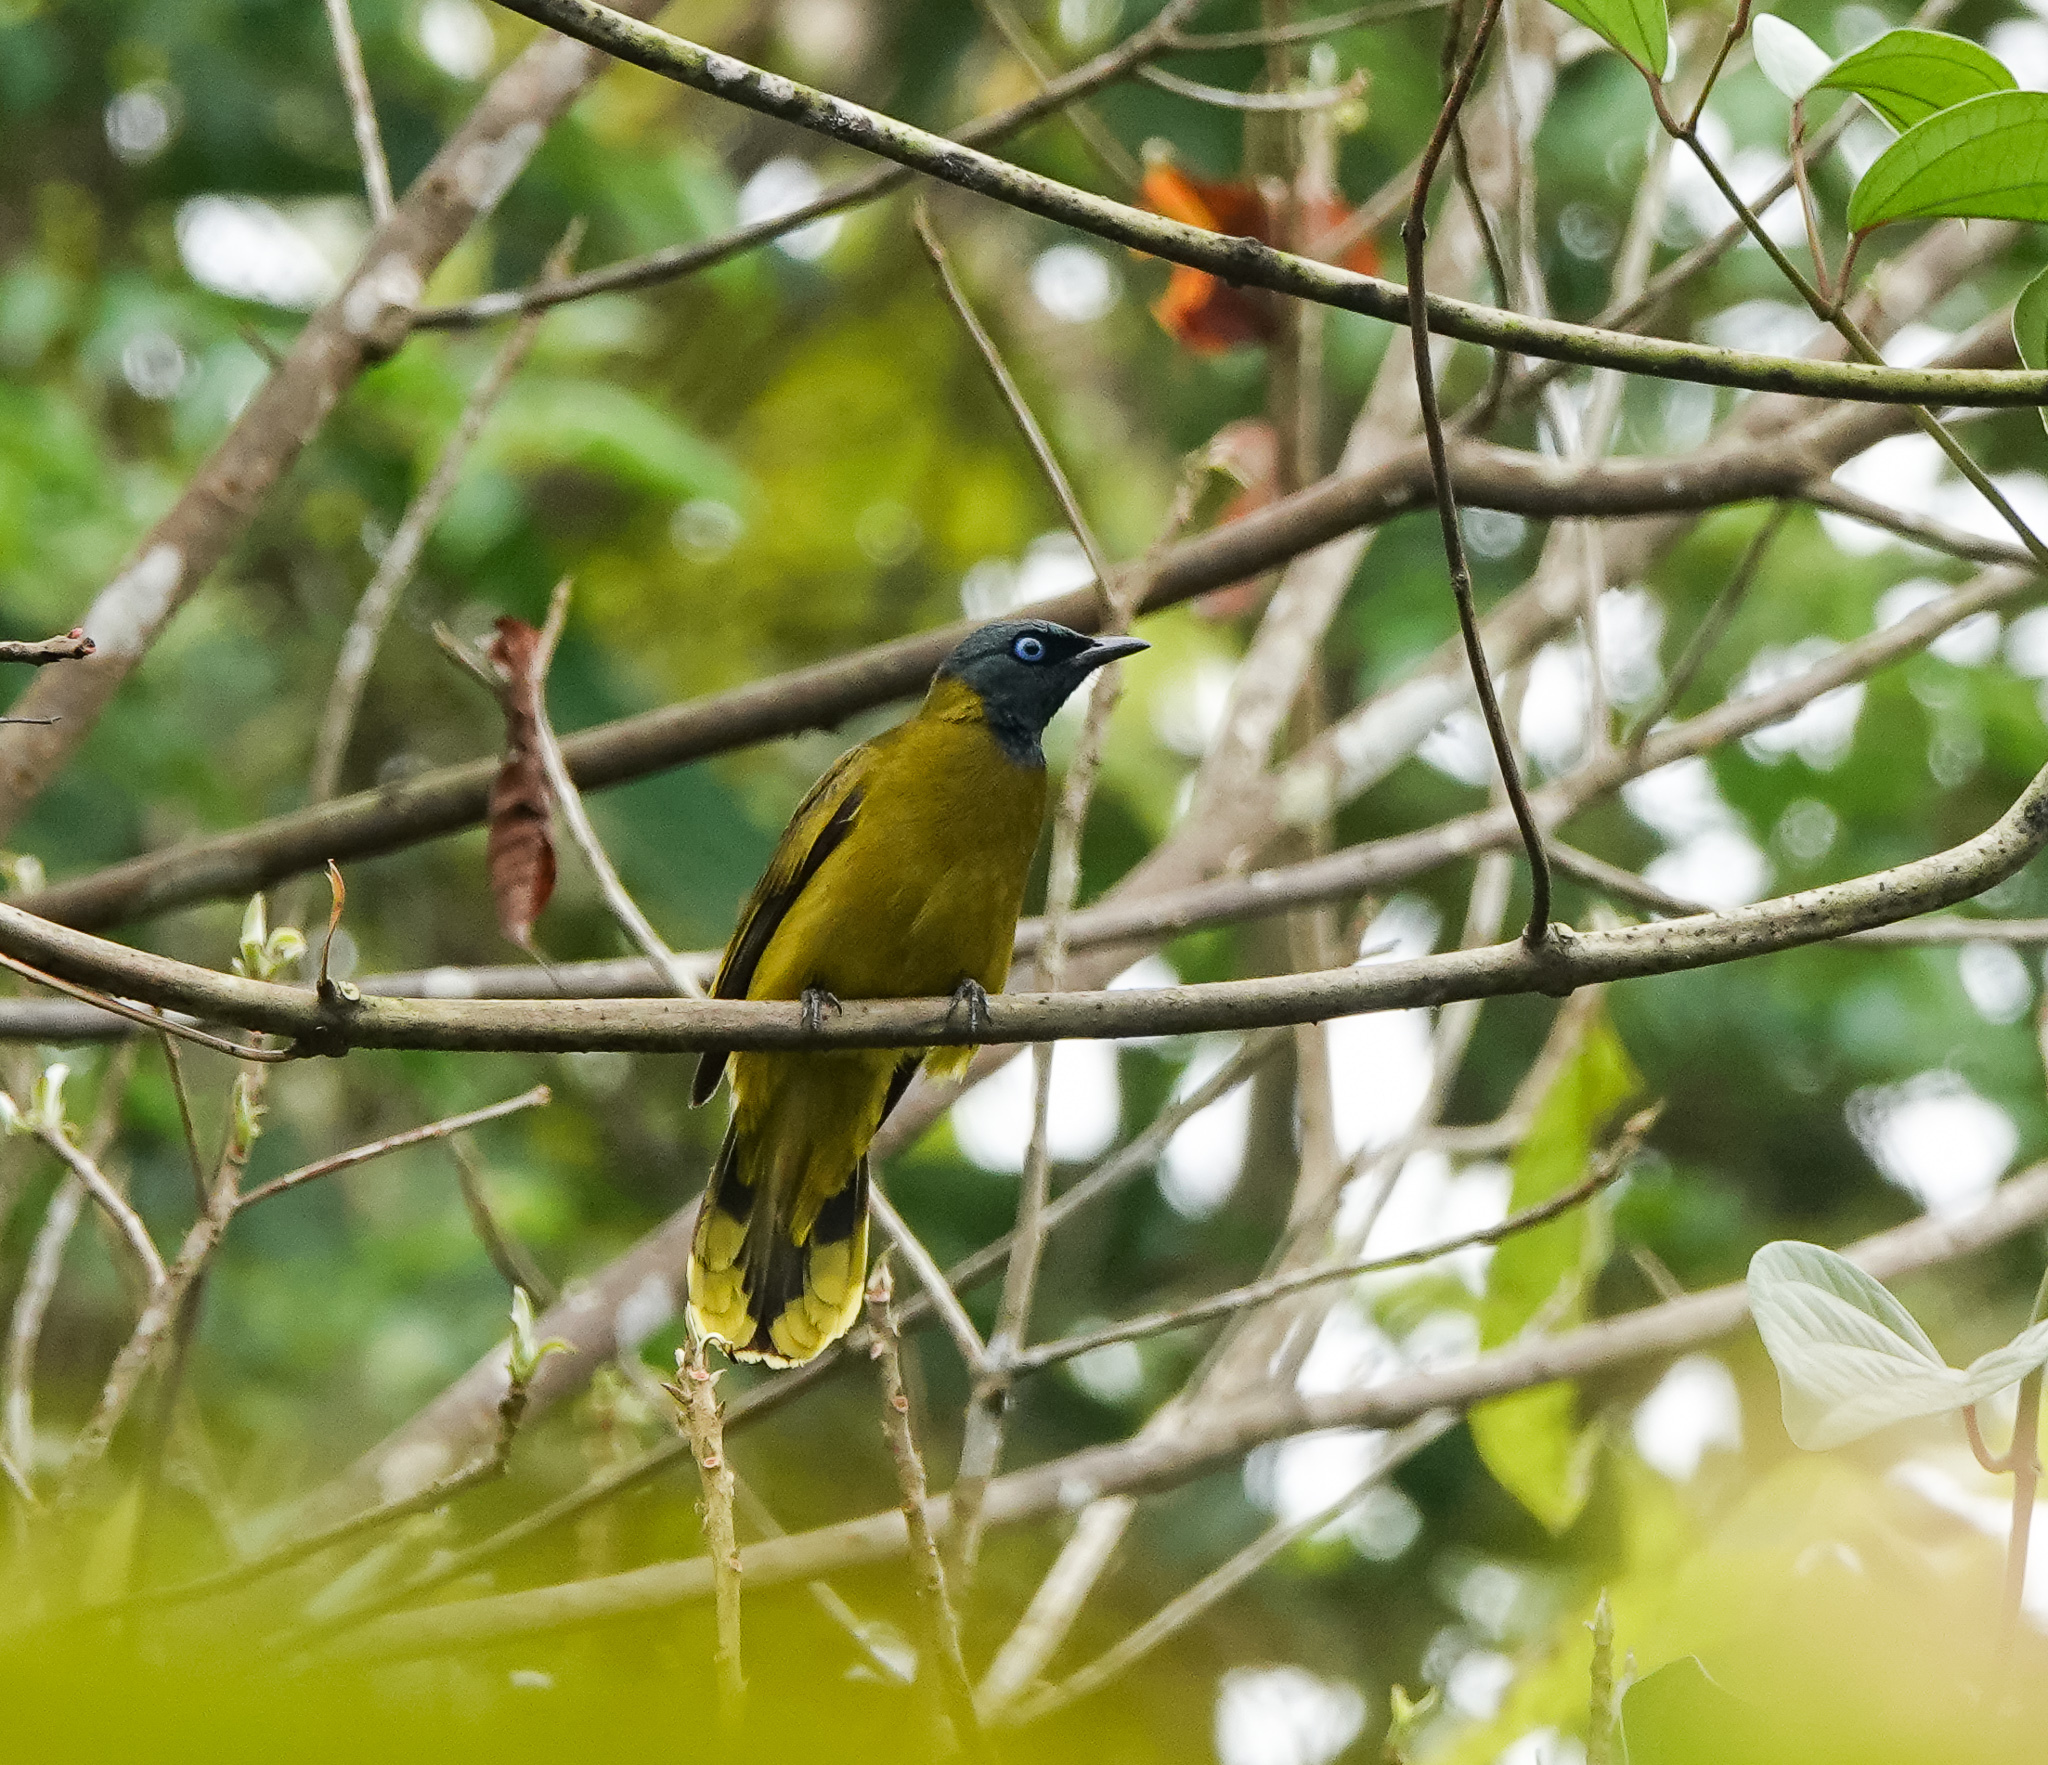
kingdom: Animalia
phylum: Chordata
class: Aves
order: Passeriformes
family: Pycnonotidae
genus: Microtarsus
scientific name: Microtarsus
